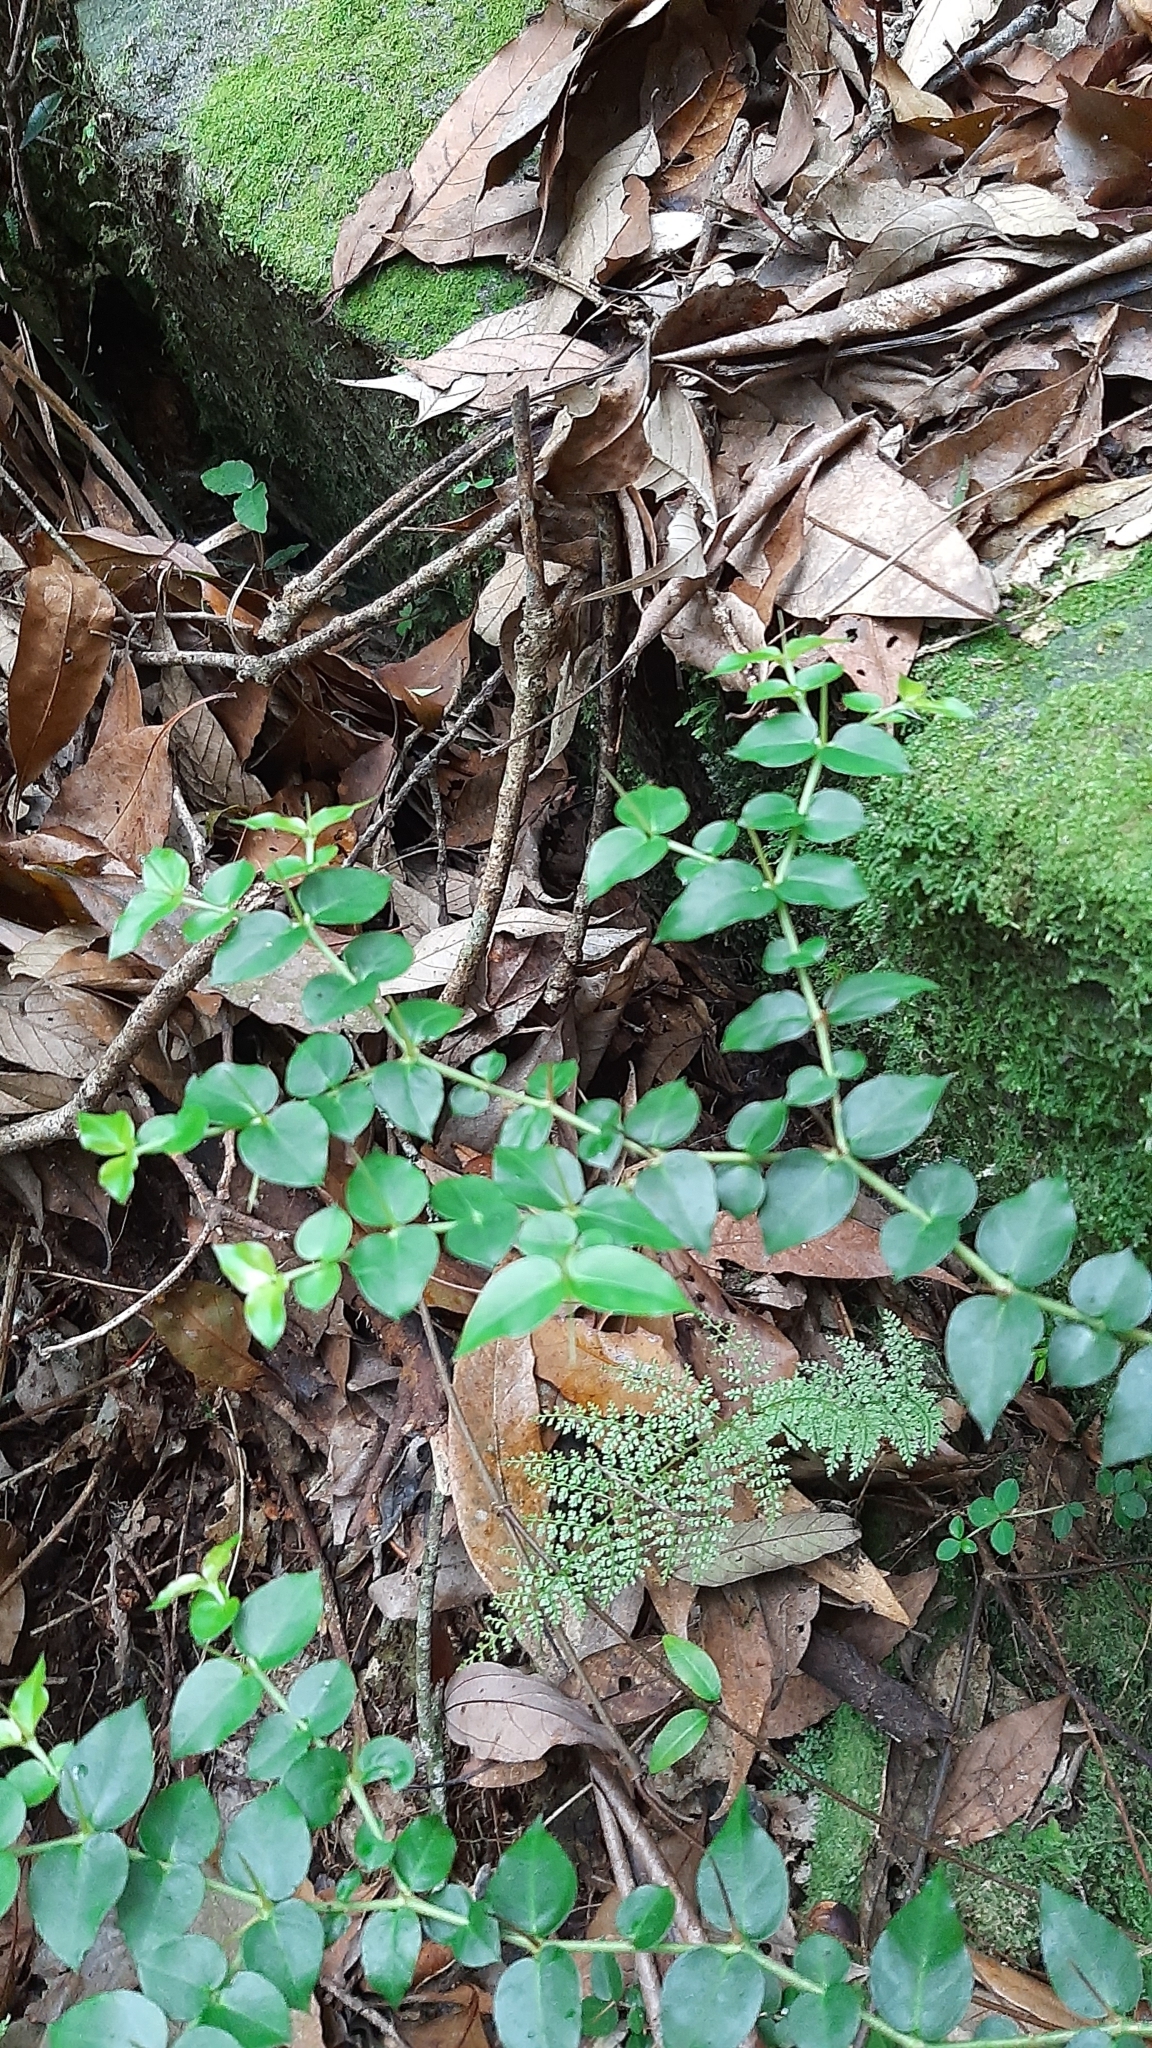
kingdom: Plantae
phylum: Tracheophyta
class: Magnoliopsida
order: Gentianales
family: Rubiaceae
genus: Damnacanthus
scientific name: Damnacanthus indicus
